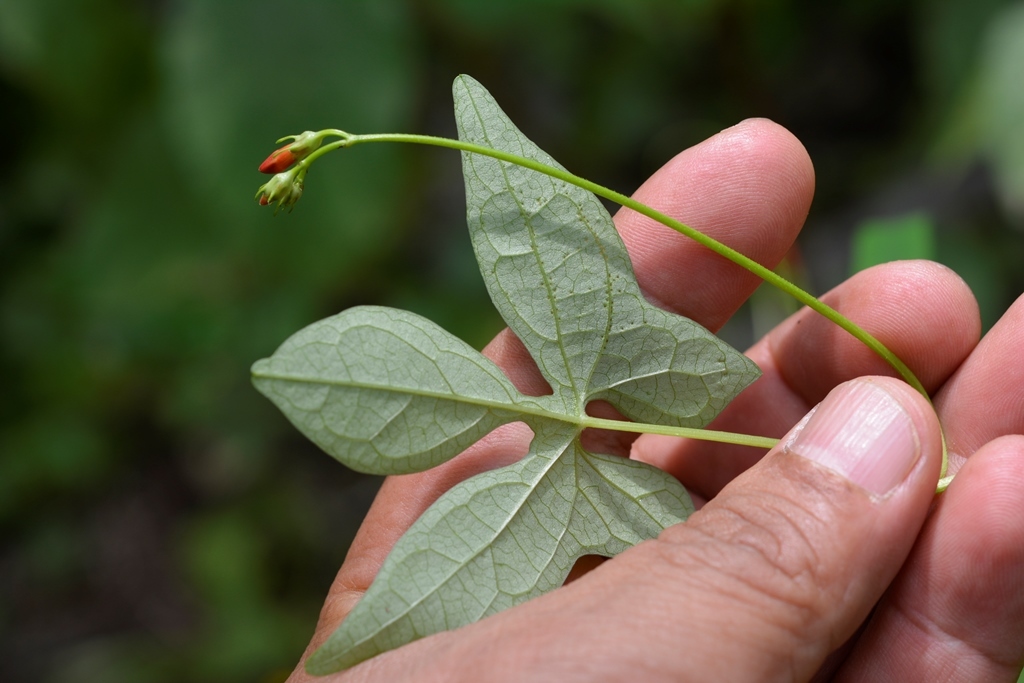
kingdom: Plantae
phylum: Tracheophyta
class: Magnoliopsida
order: Solanales
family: Convolvulaceae
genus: Ipomoea
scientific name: Ipomoea hederifolia
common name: Ivy-leaf morning-glory
